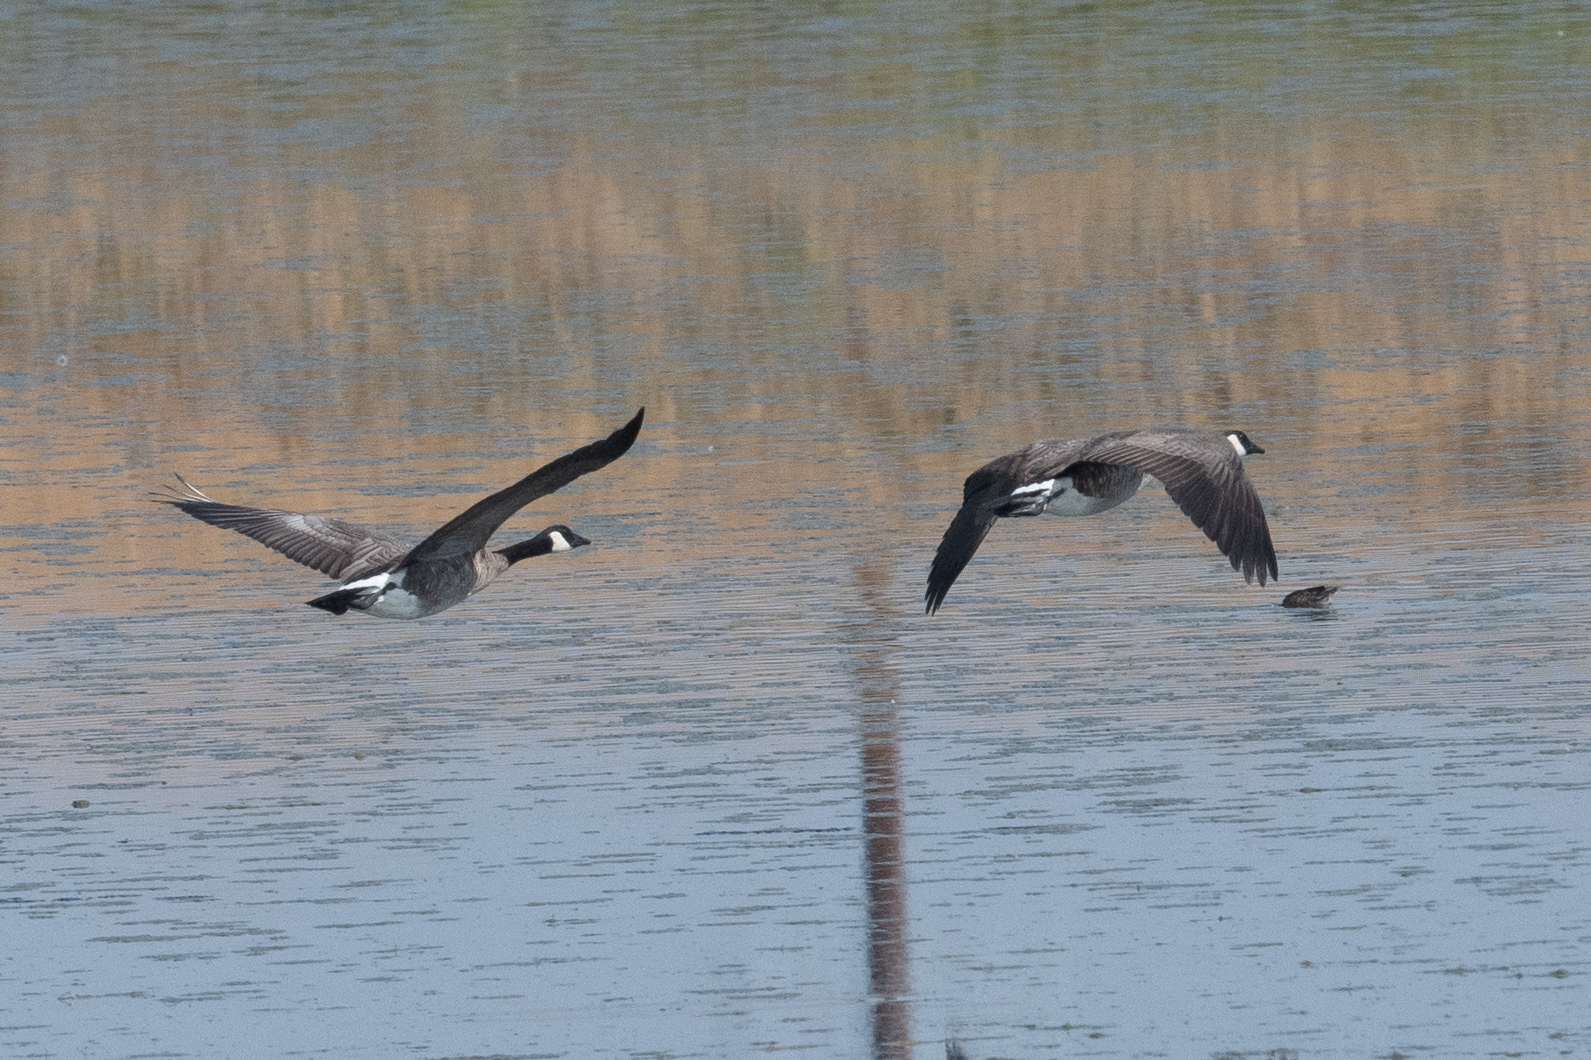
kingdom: Animalia
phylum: Chordata
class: Aves
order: Anseriformes
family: Anatidae
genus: Branta
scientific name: Branta canadensis
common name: Canada goose
